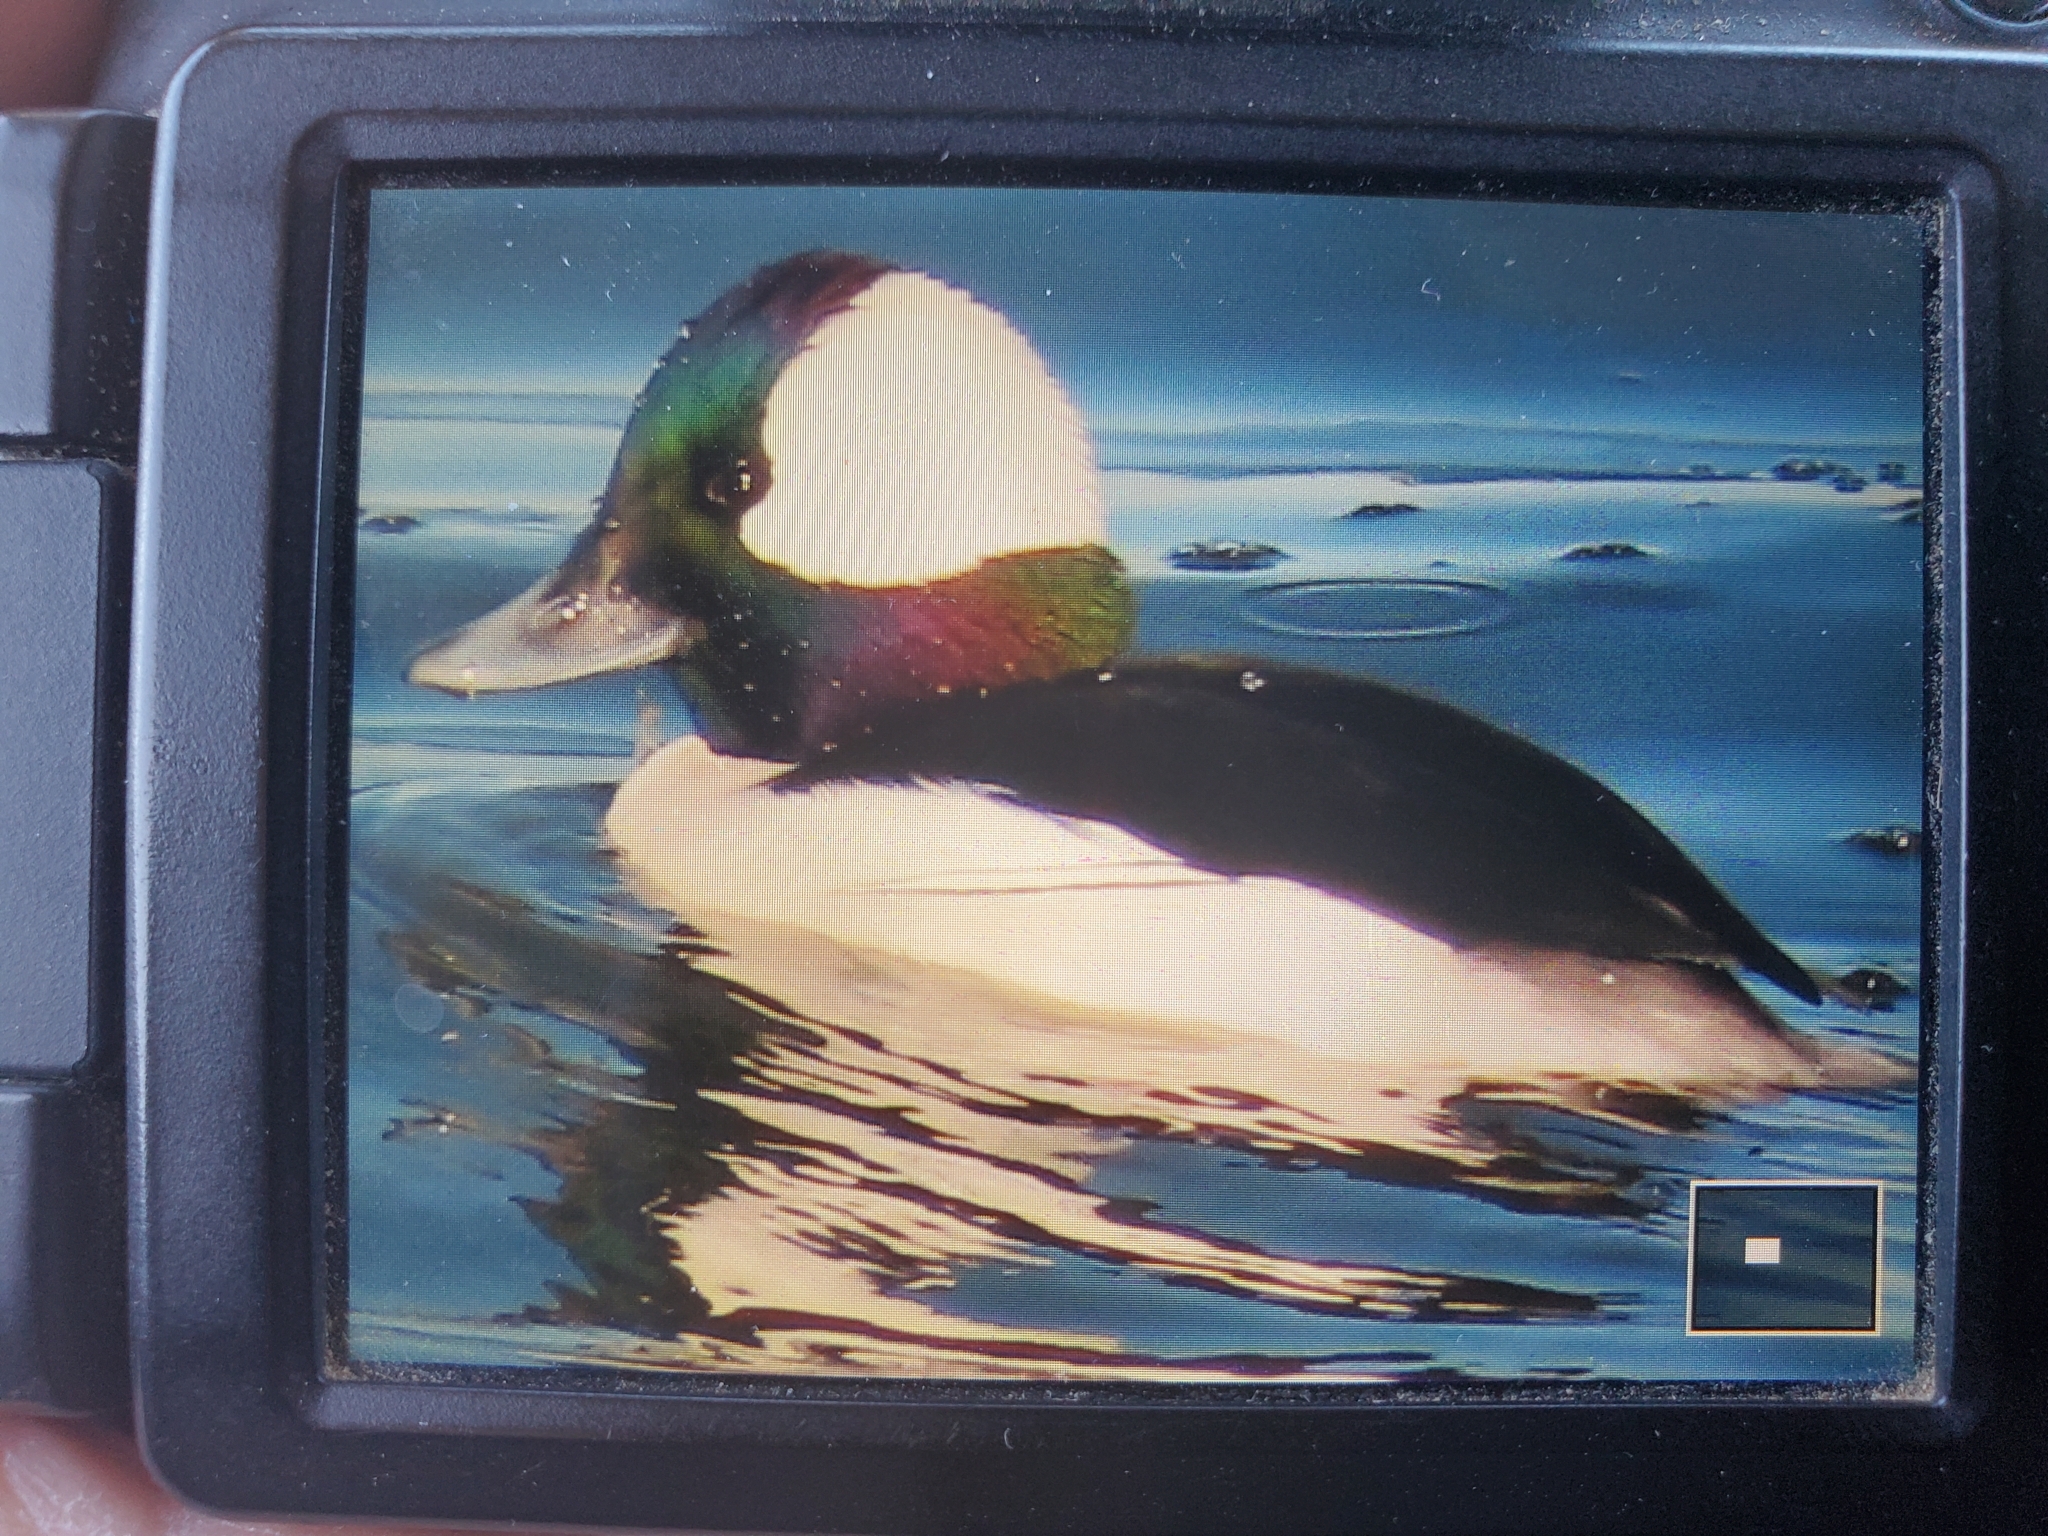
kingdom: Animalia
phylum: Chordata
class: Aves
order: Anseriformes
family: Anatidae
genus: Bucephala
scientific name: Bucephala albeola
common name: Bufflehead
